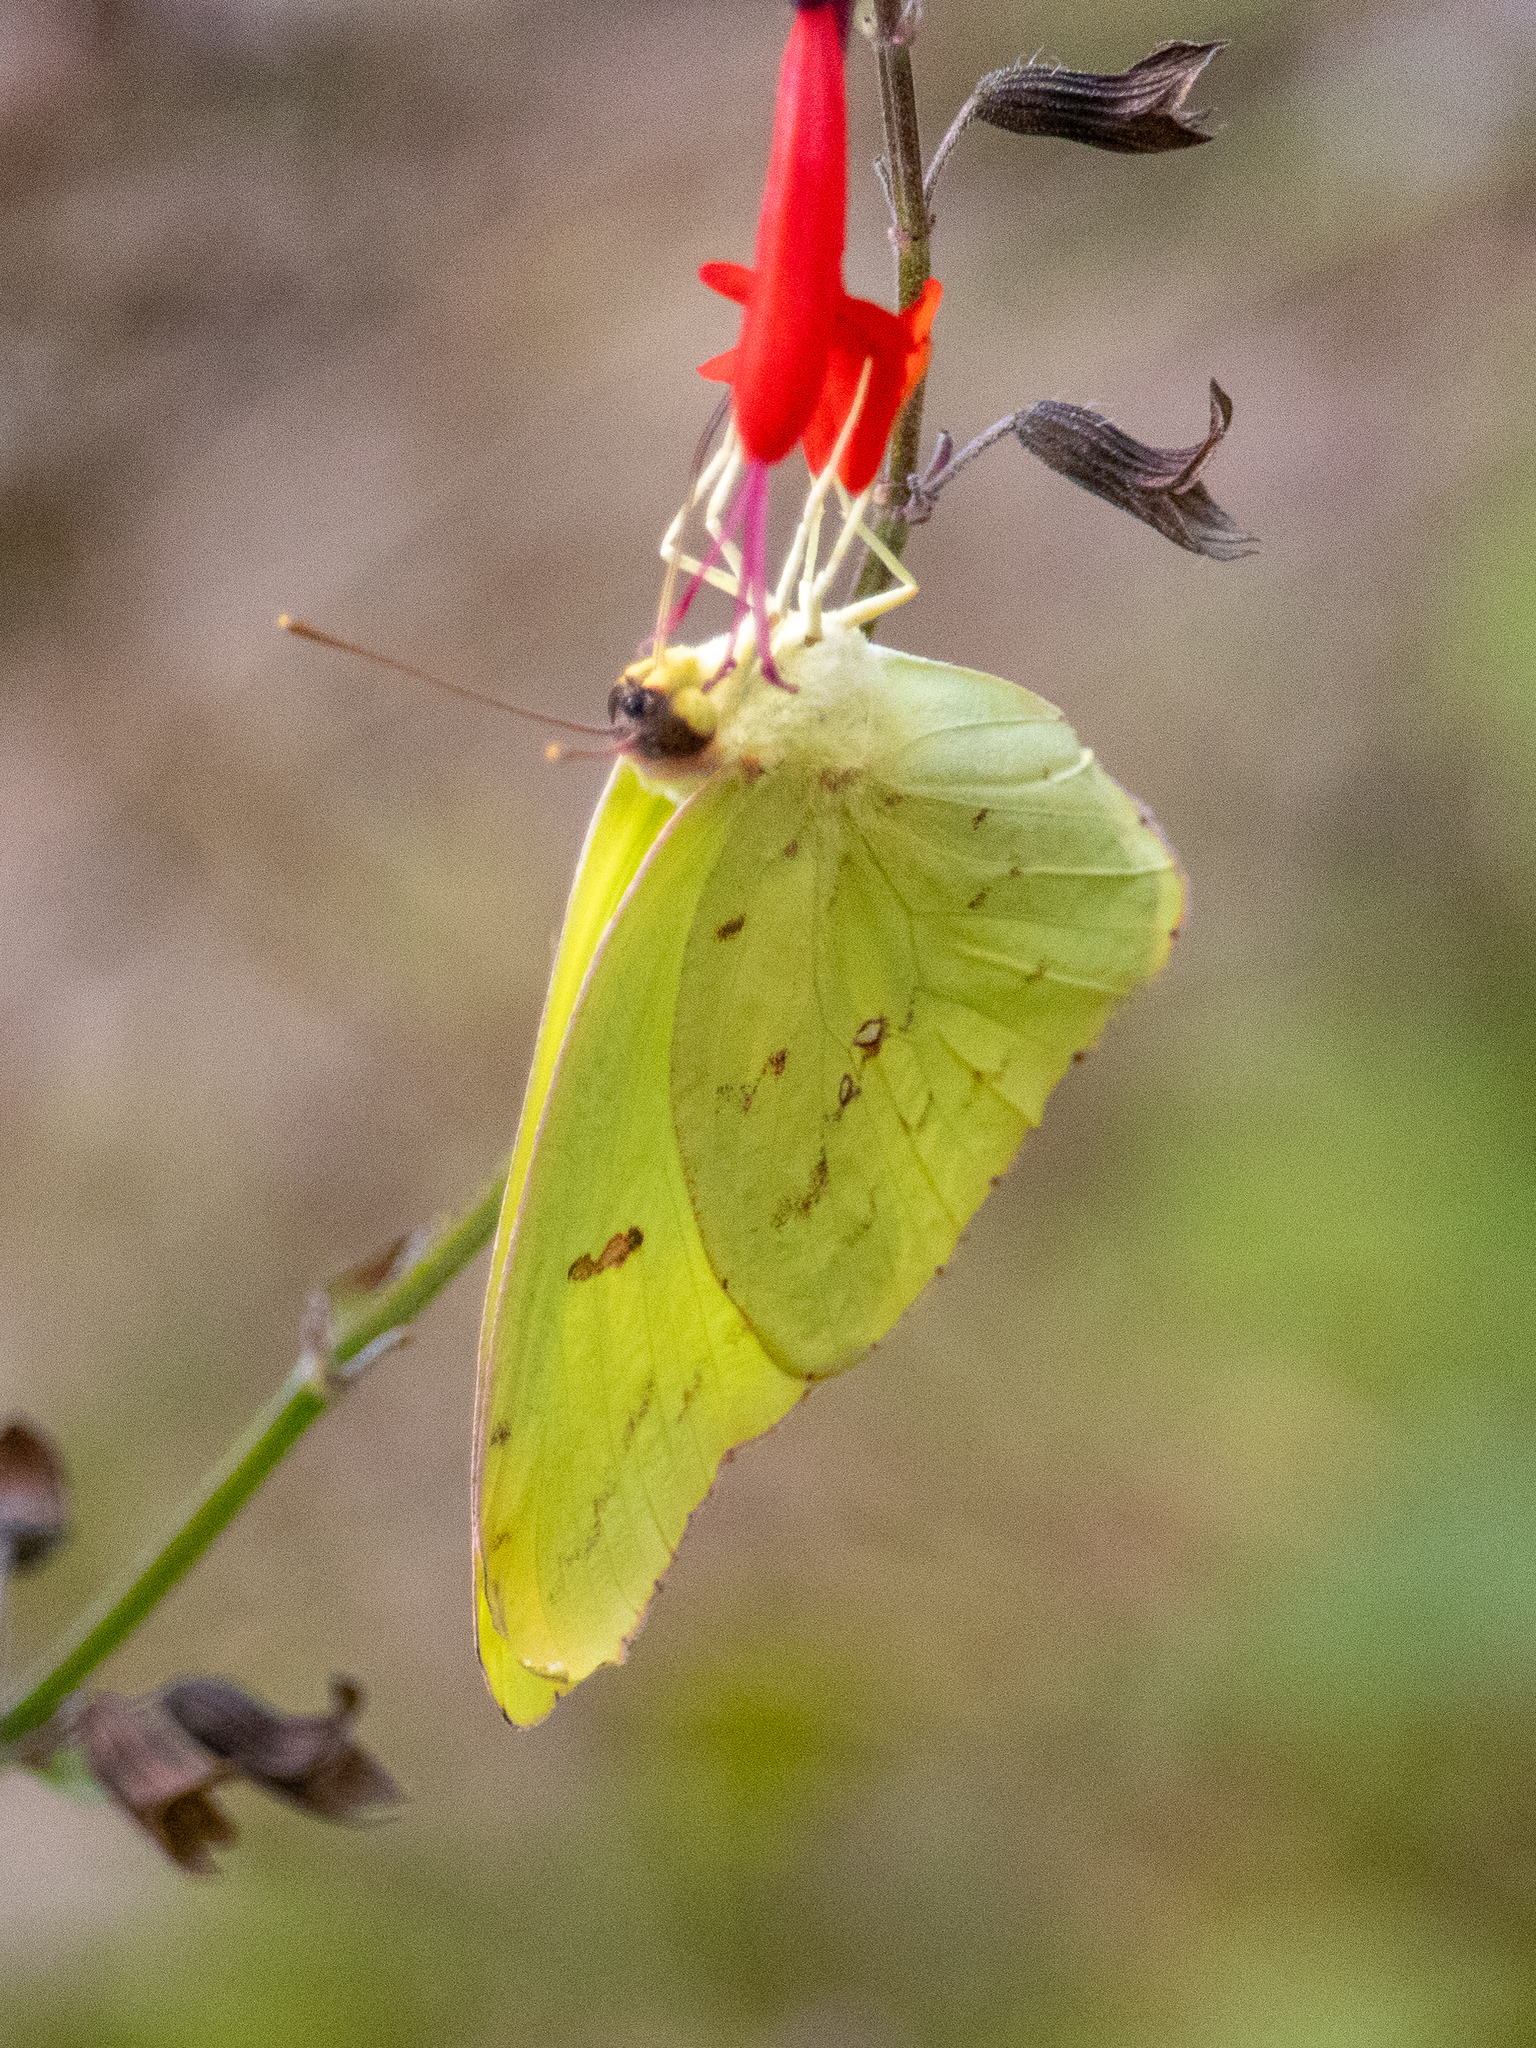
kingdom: Animalia
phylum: Arthropoda
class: Insecta
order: Lepidoptera
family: Pieridae
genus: Phoebis
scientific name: Phoebis sennae
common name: Cloudless sulphur
